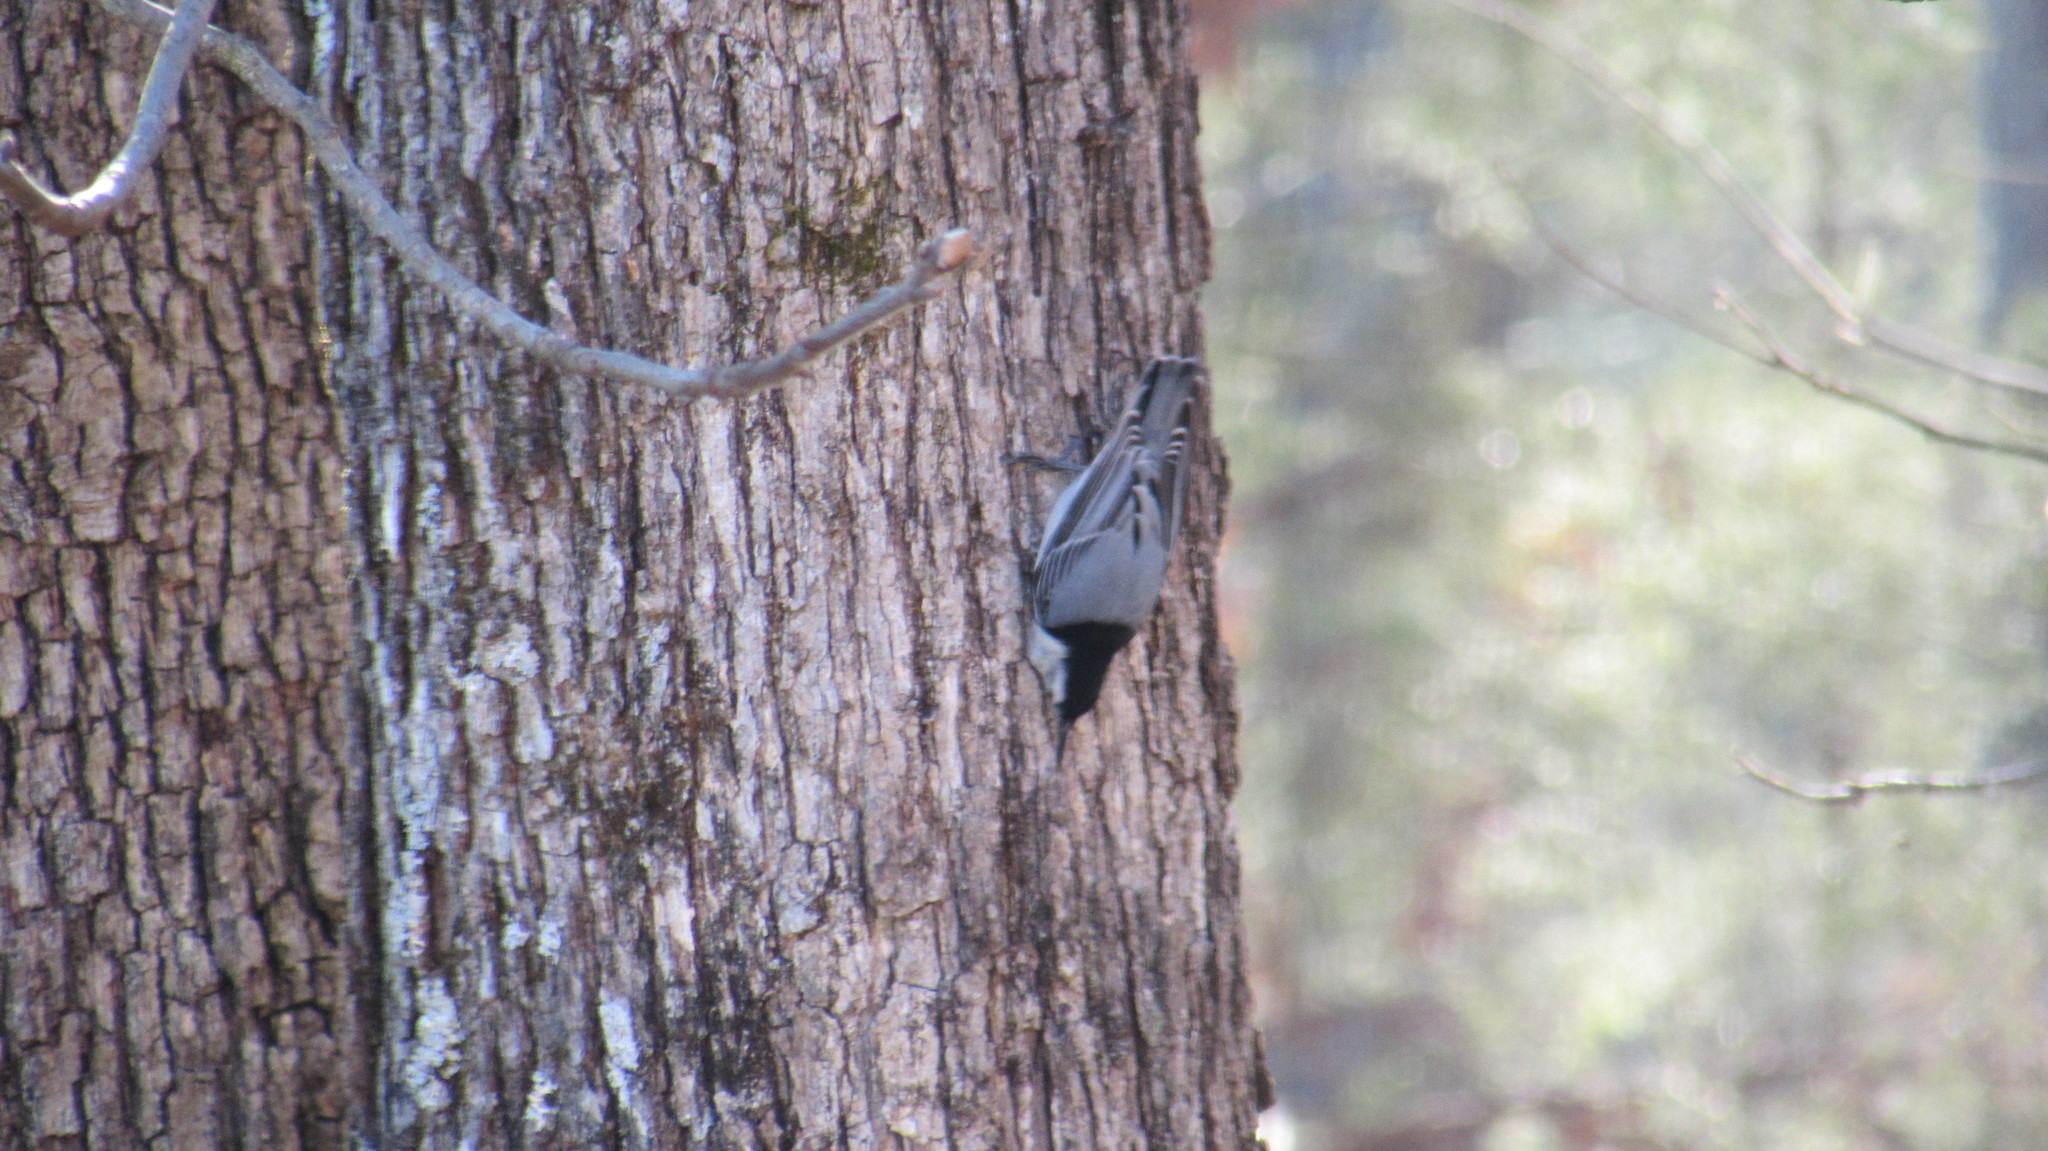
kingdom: Animalia
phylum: Chordata
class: Aves
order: Passeriformes
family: Sittidae
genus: Sitta
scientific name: Sitta carolinensis
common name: White-breasted nuthatch
